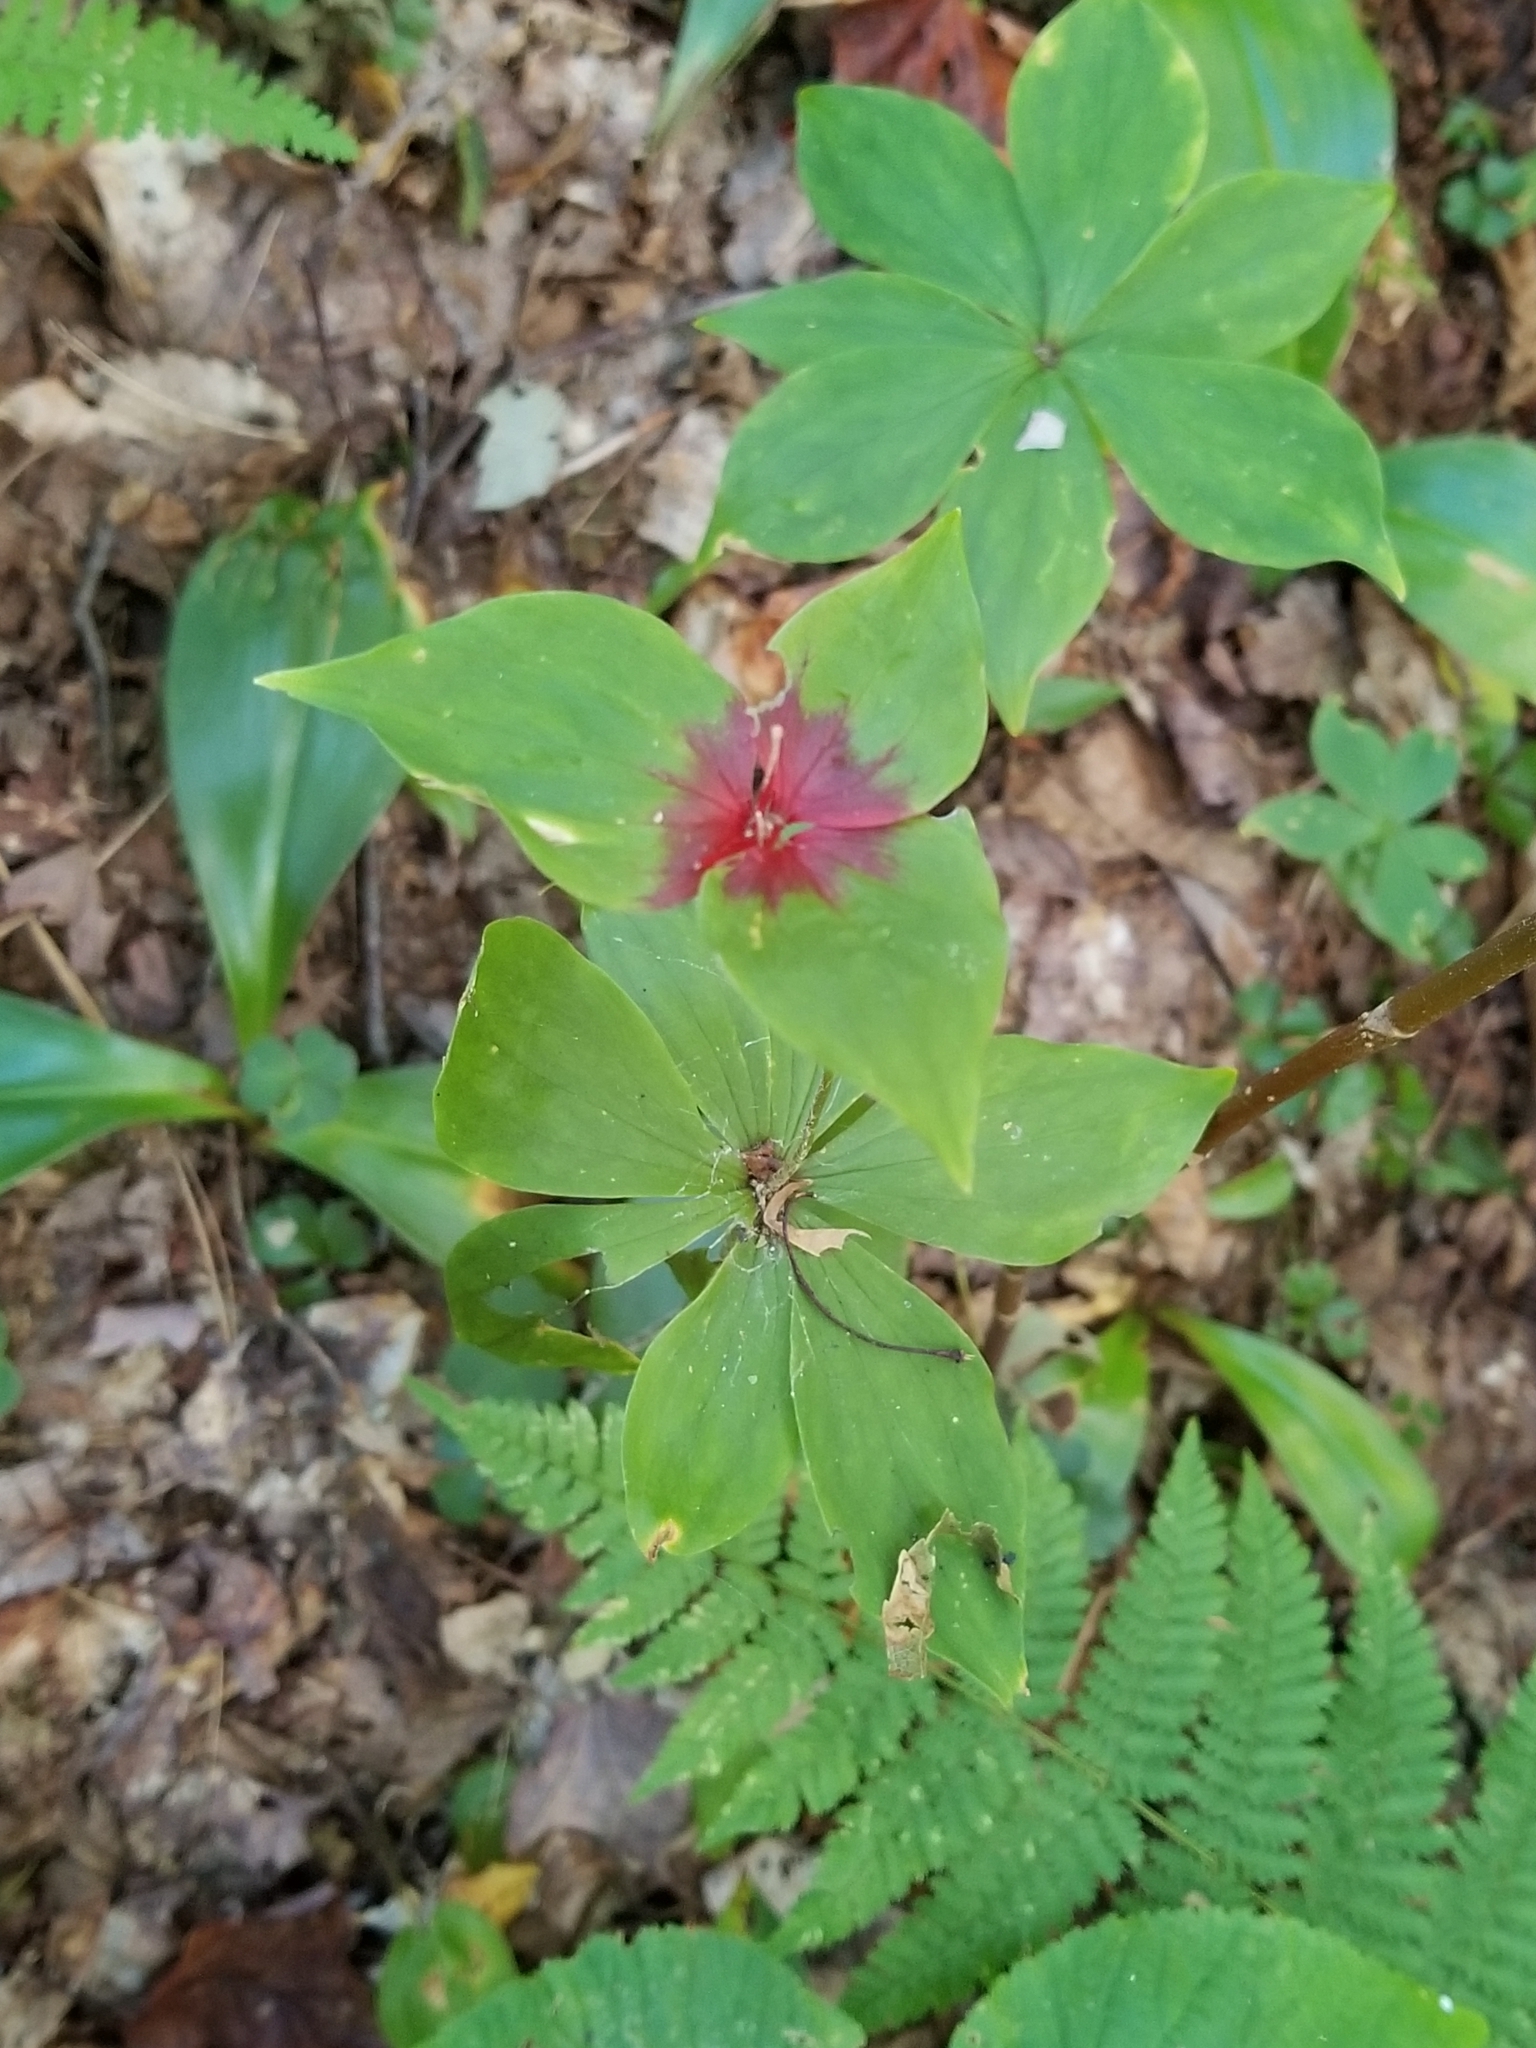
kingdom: Plantae
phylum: Tracheophyta
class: Liliopsida
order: Liliales
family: Liliaceae
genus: Medeola
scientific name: Medeola virginiana
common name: Indian cucumber-root
